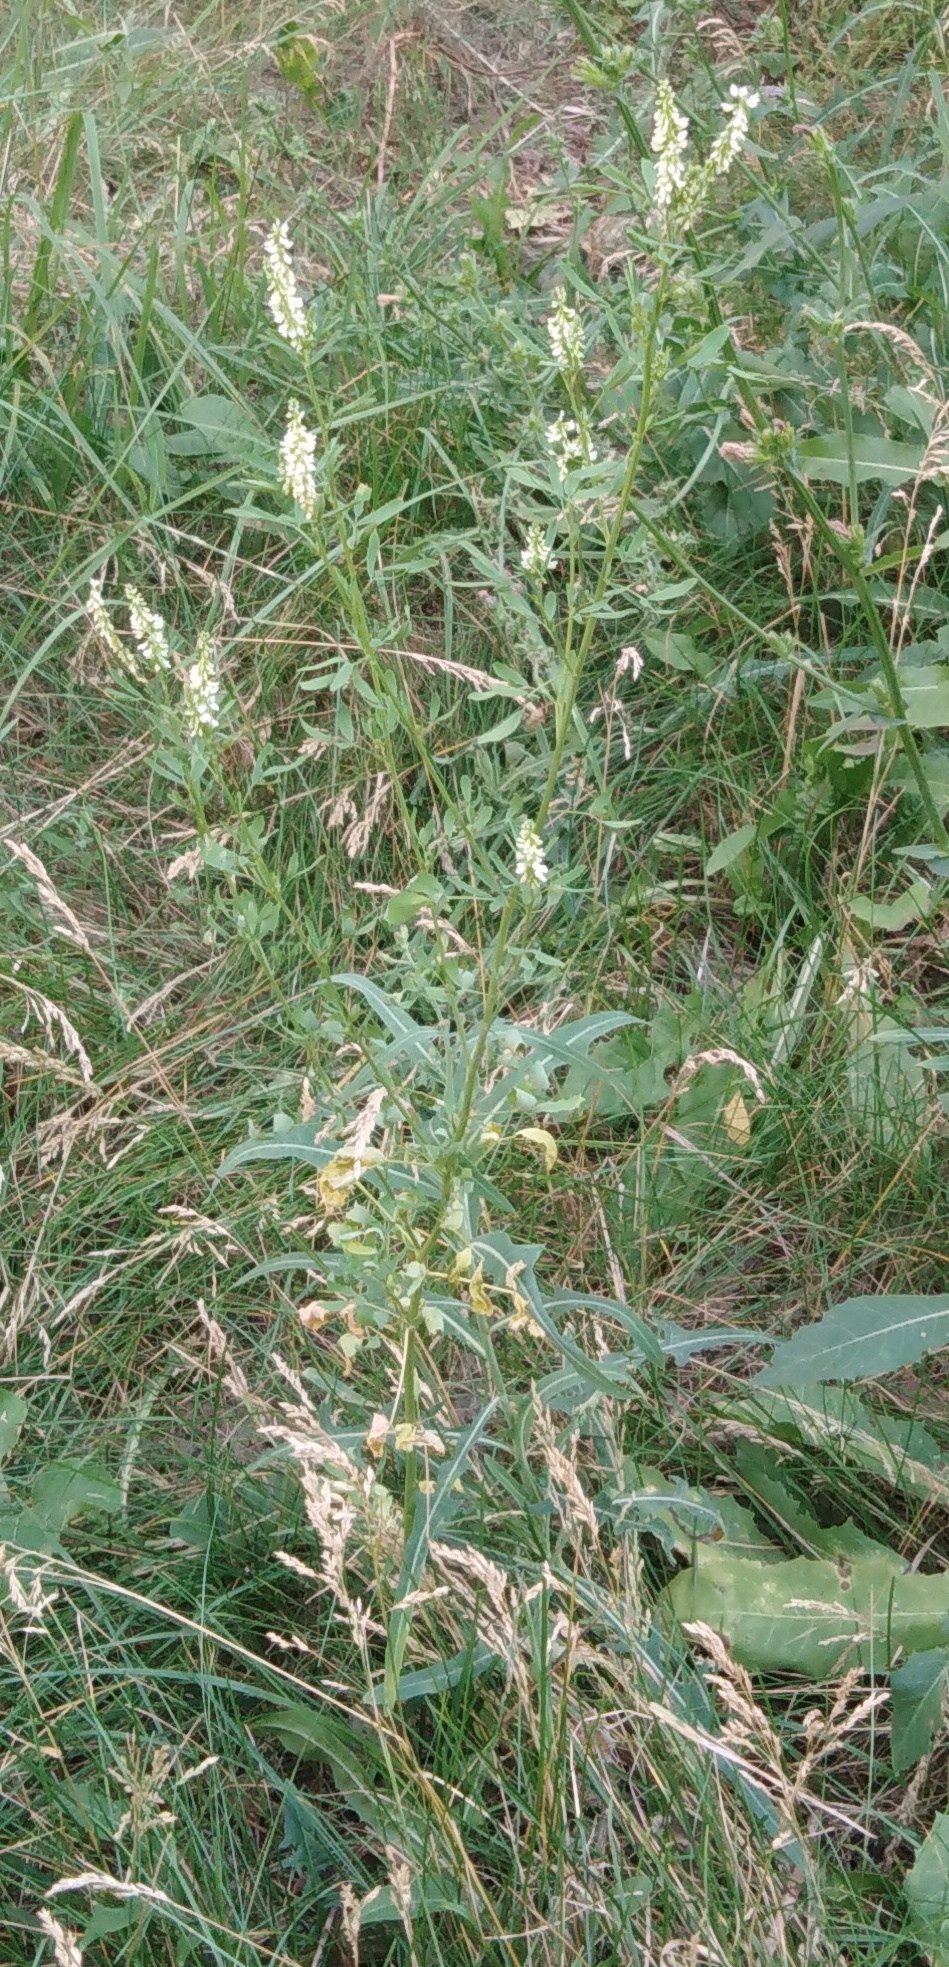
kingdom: Plantae
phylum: Tracheophyta
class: Magnoliopsida
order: Fabales
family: Fabaceae
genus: Melilotus
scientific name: Melilotus albus
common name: White melilot
